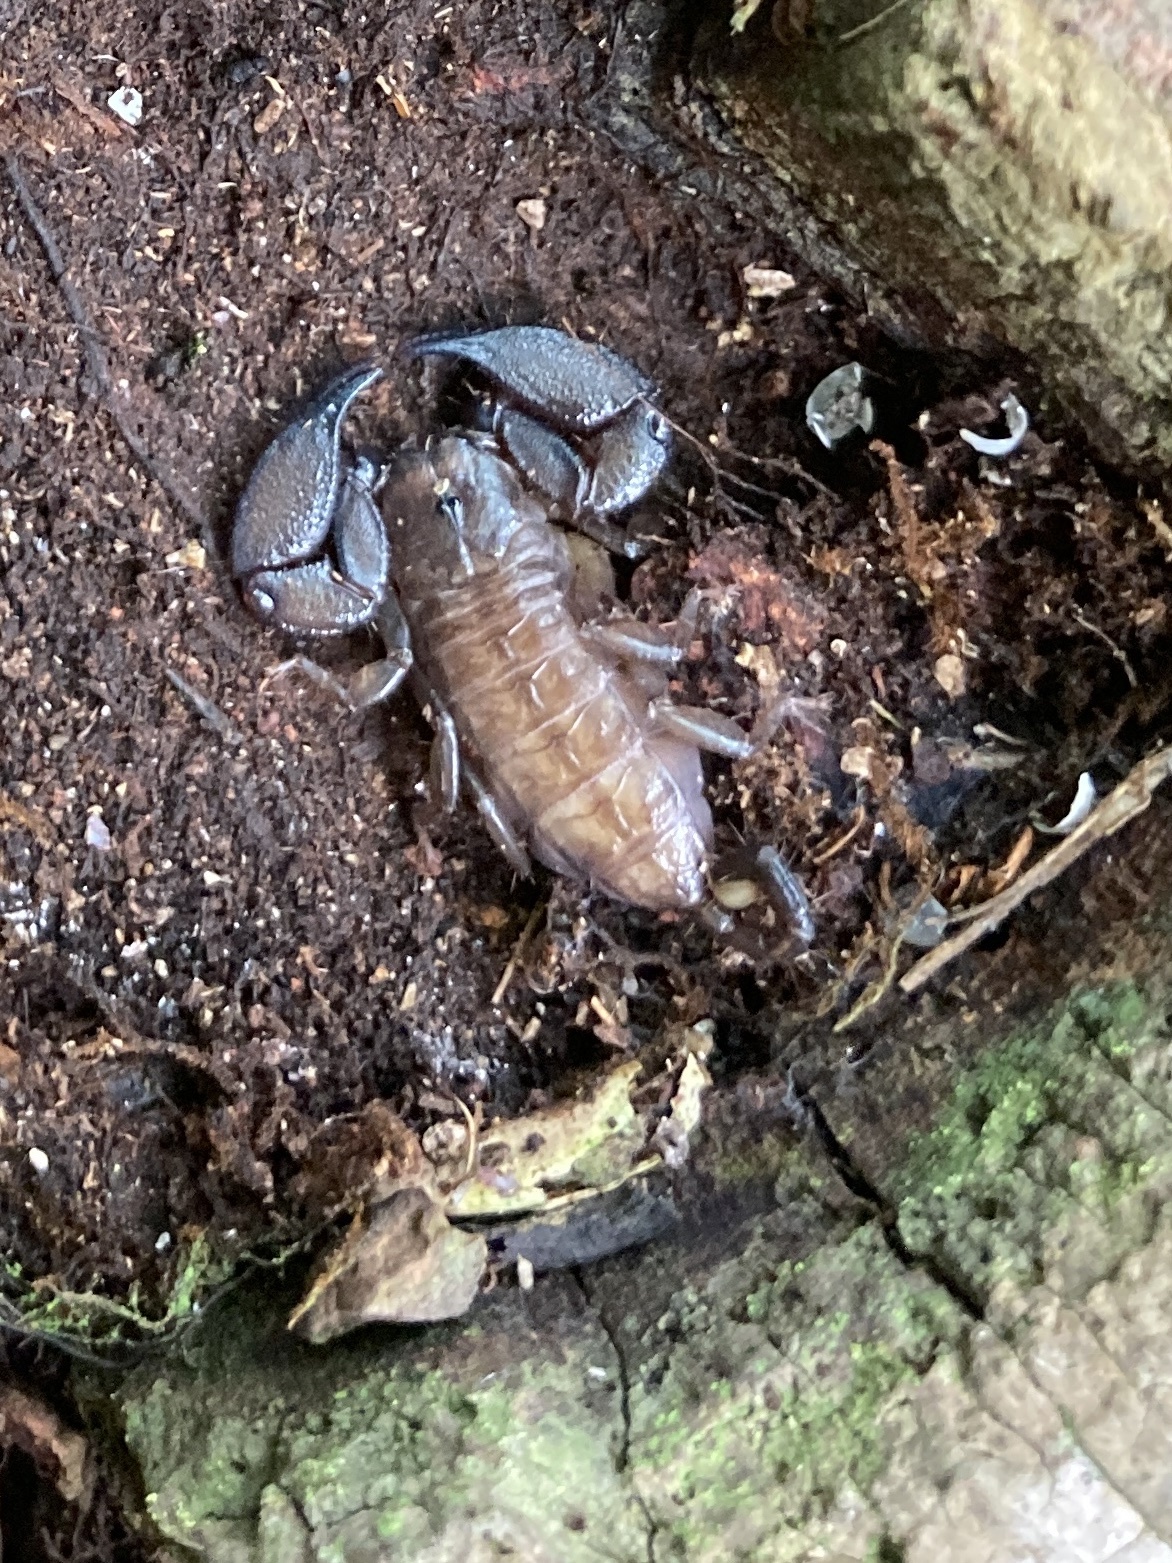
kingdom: Animalia
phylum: Arthropoda
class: Arachnida
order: Scorpiones
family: Hormuridae
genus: Liocheles
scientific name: Liocheles australasiae
